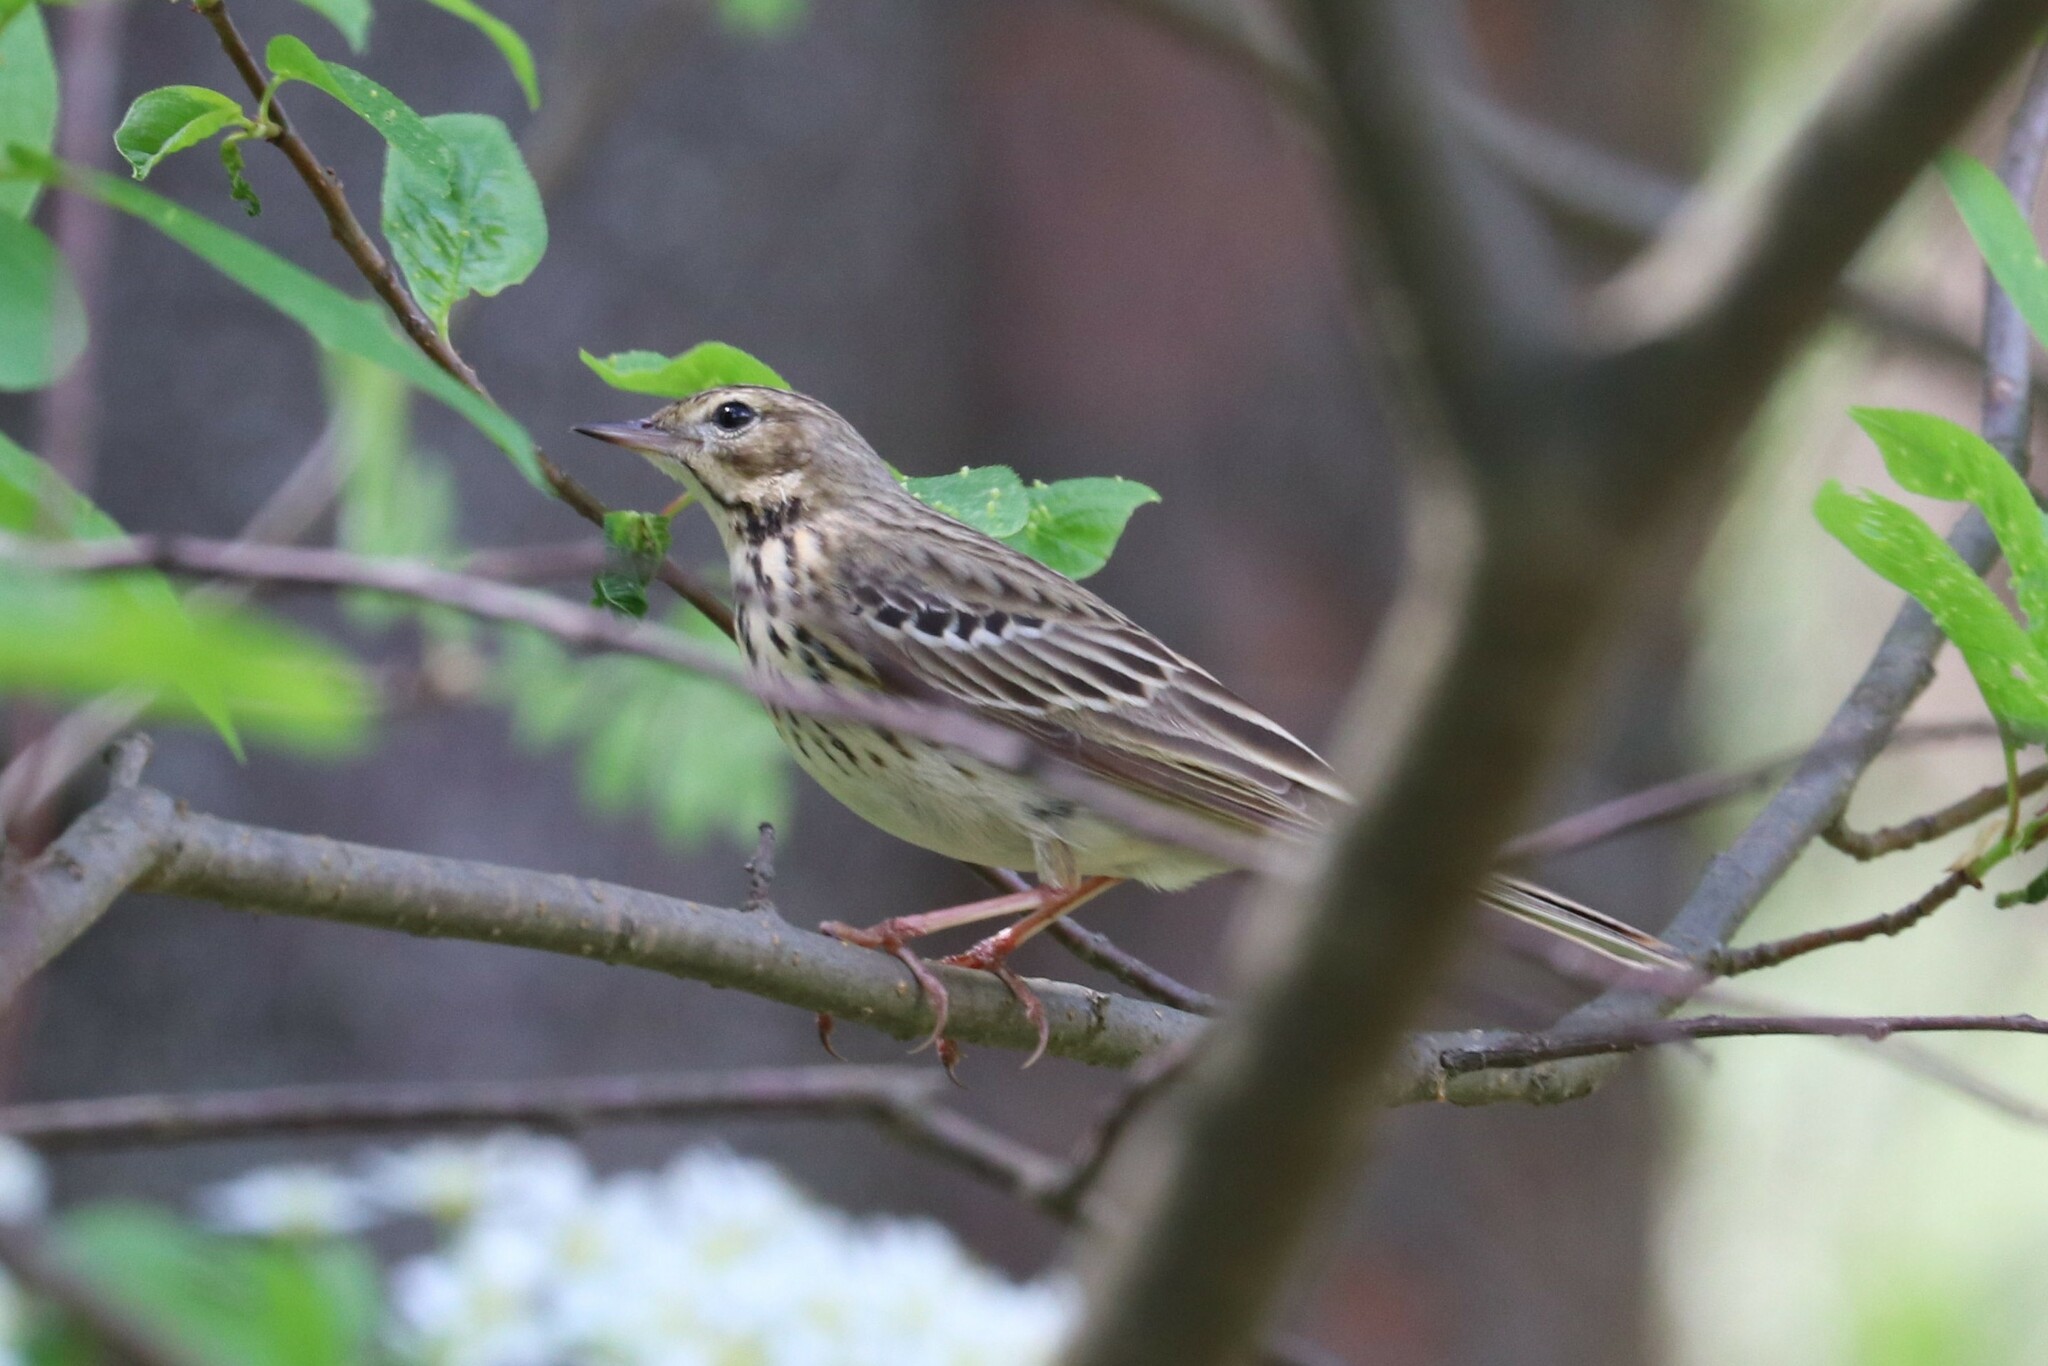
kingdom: Animalia
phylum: Chordata
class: Aves
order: Passeriformes
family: Motacillidae
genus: Anthus
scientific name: Anthus trivialis
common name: Tree pipit
